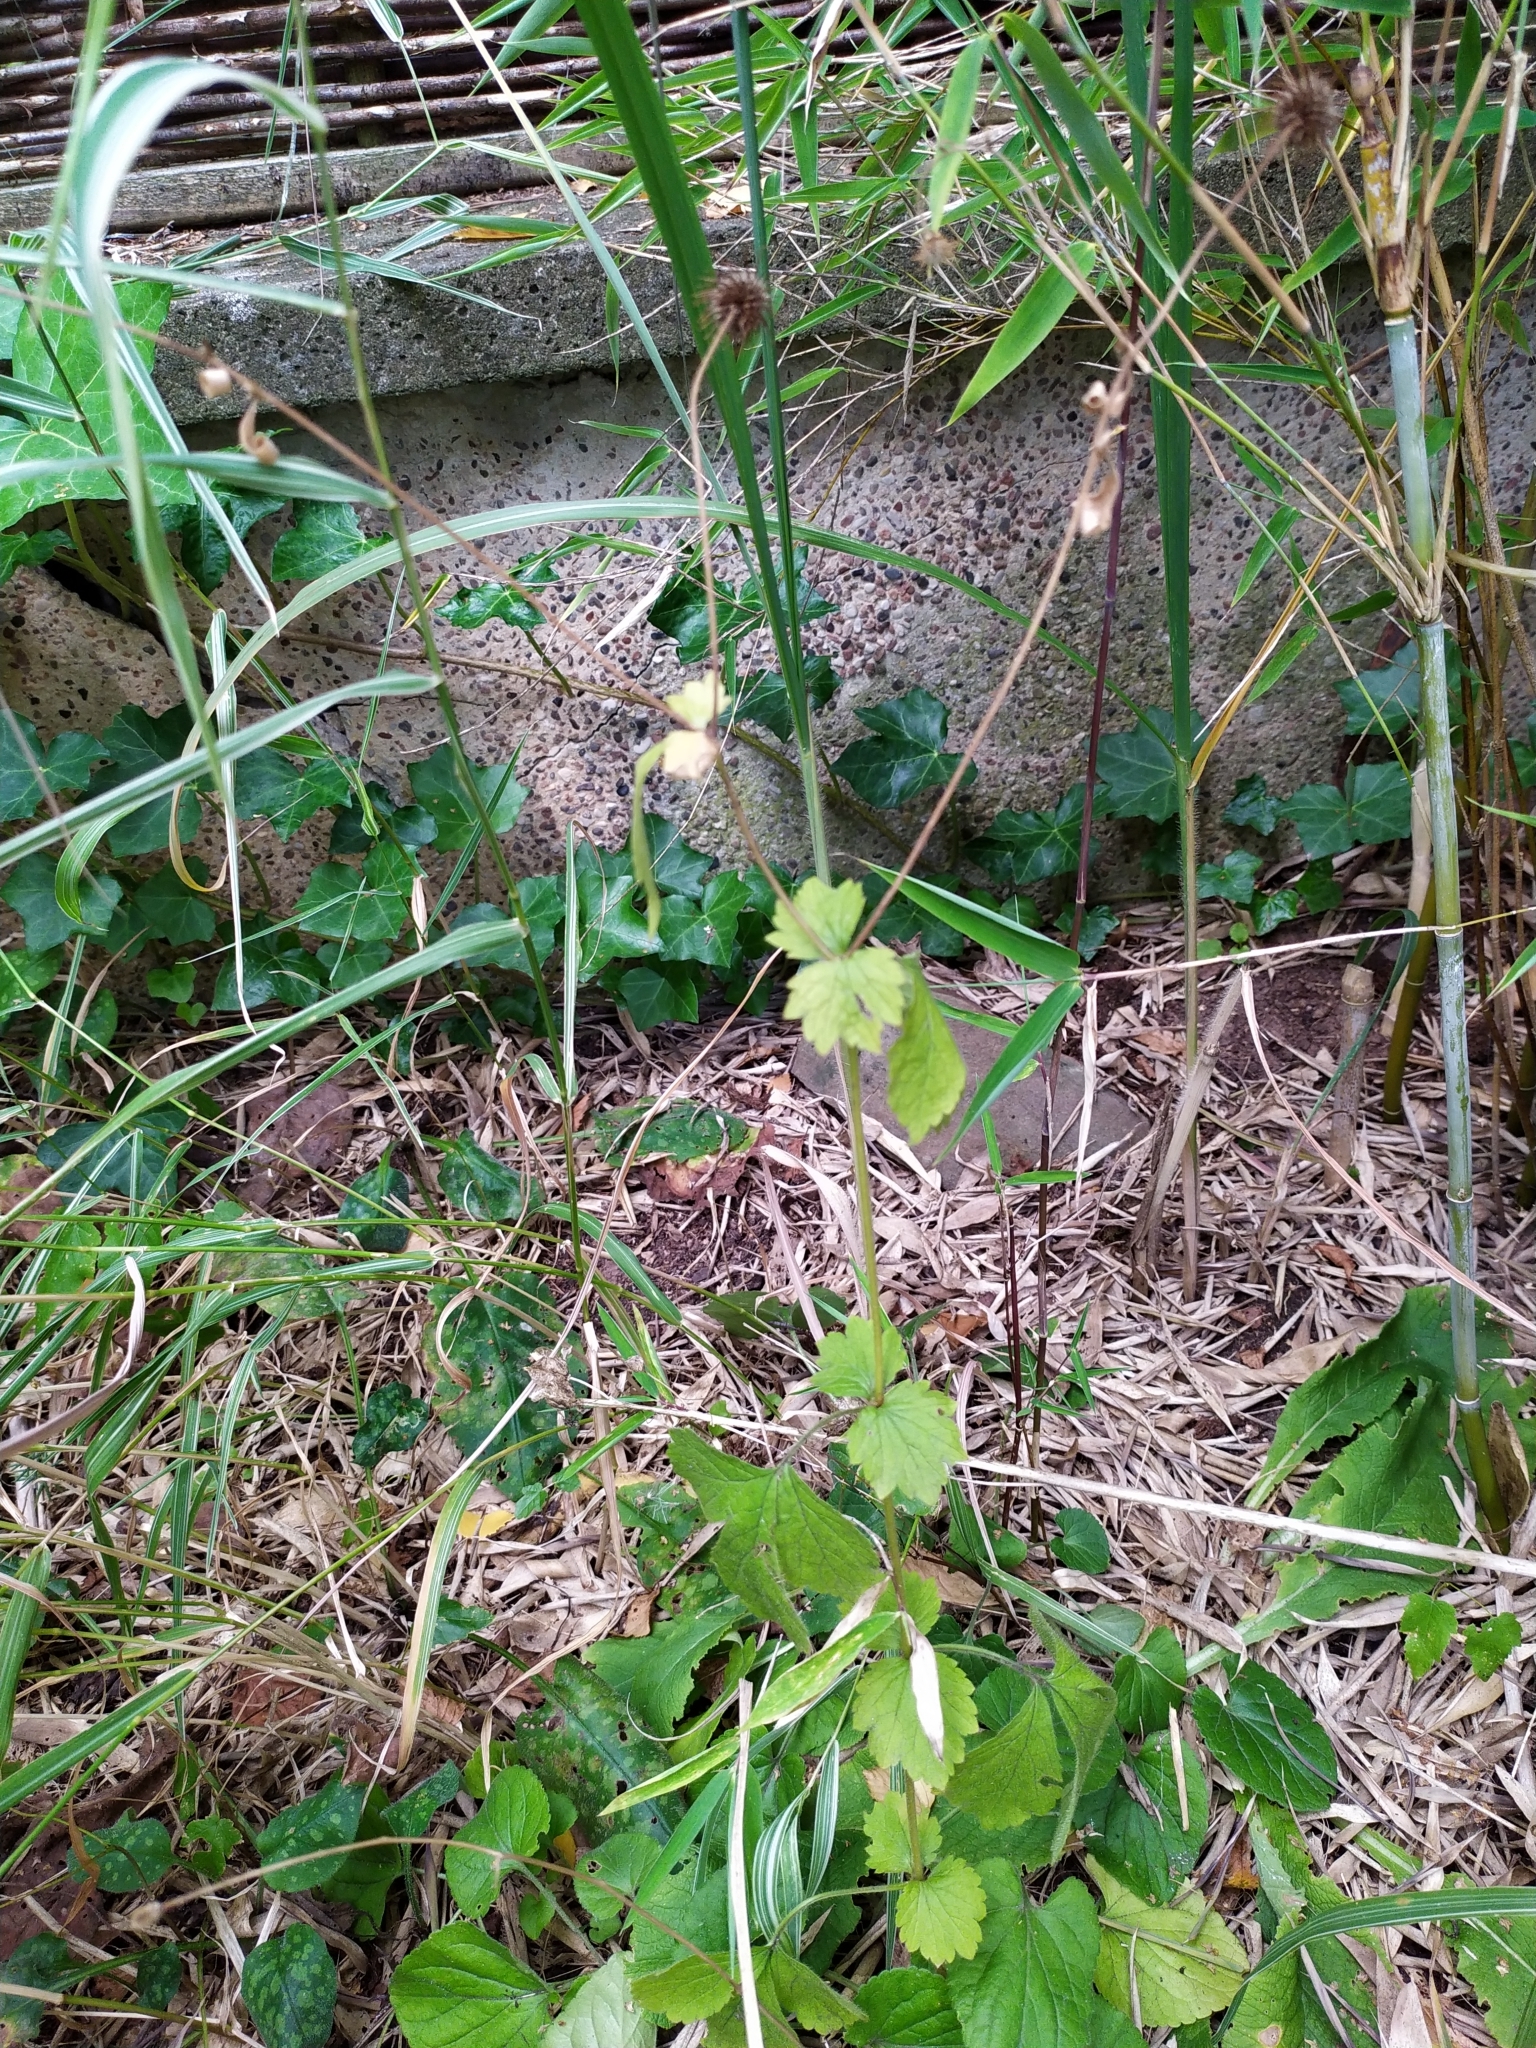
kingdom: Plantae
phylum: Tracheophyta
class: Magnoliopsida
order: Rosales
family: Rosaceae
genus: Geum
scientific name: Geum urbanum
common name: Wood avens
